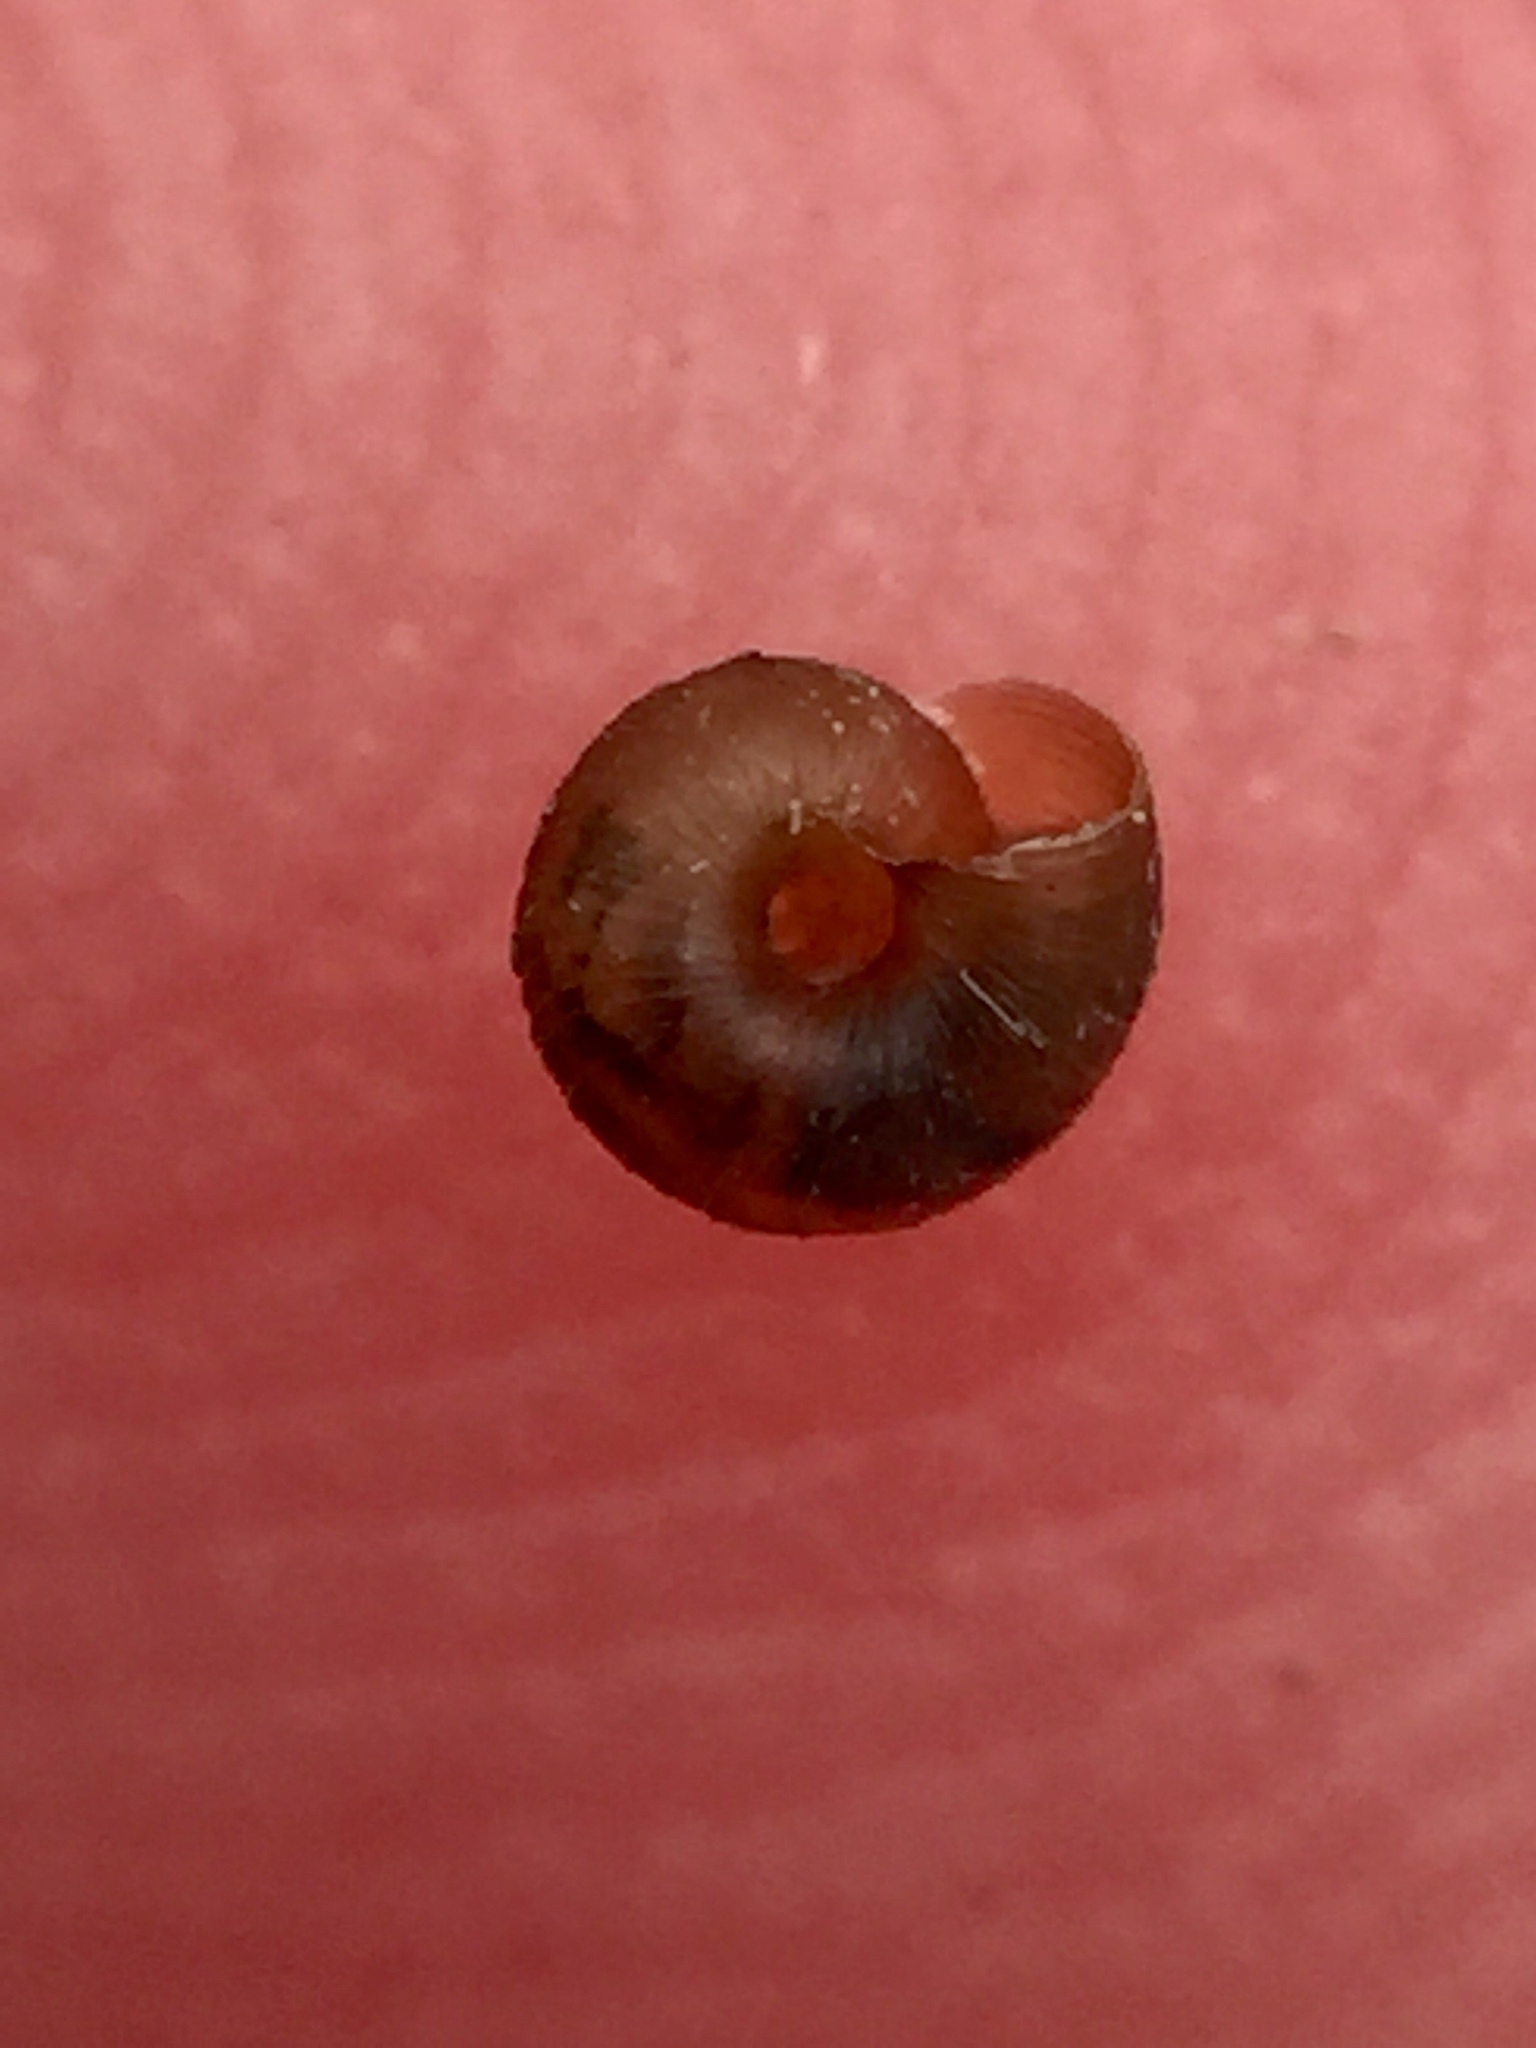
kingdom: Animalia
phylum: Mollusca
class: Gastropoda
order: Stylommatophora
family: Punctidae
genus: Paralaoma
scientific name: Paralaoma servilis
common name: Pinhead spot
